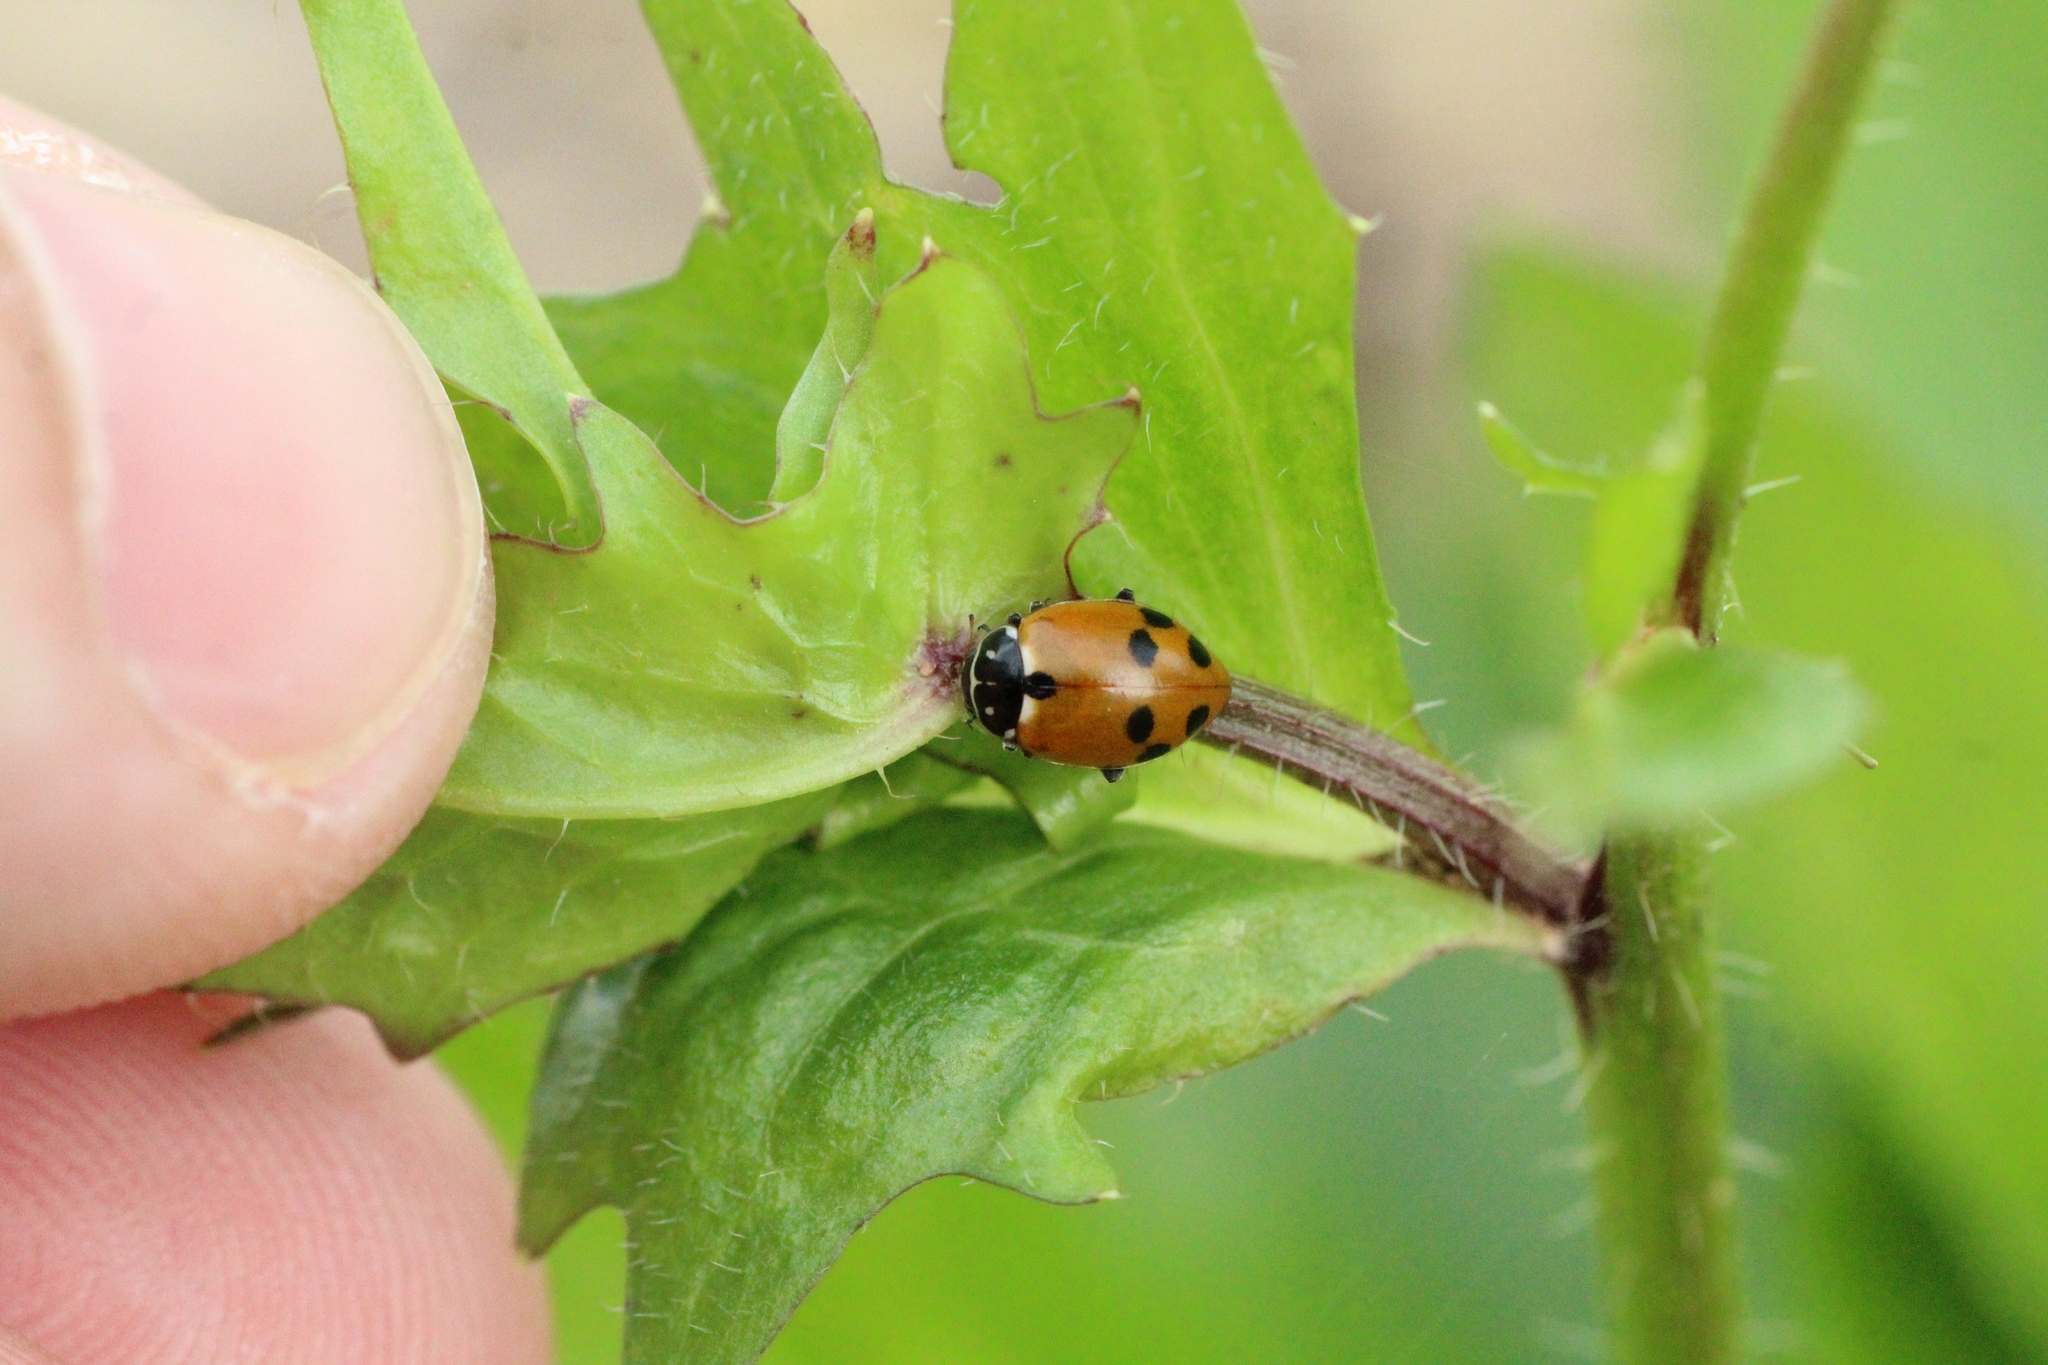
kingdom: Animalia
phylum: Arthropoda
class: Insecta
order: Coleoptera
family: Coccinellidae
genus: Hippodamia
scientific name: Hippodamia variegata
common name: Ladybird beetle
